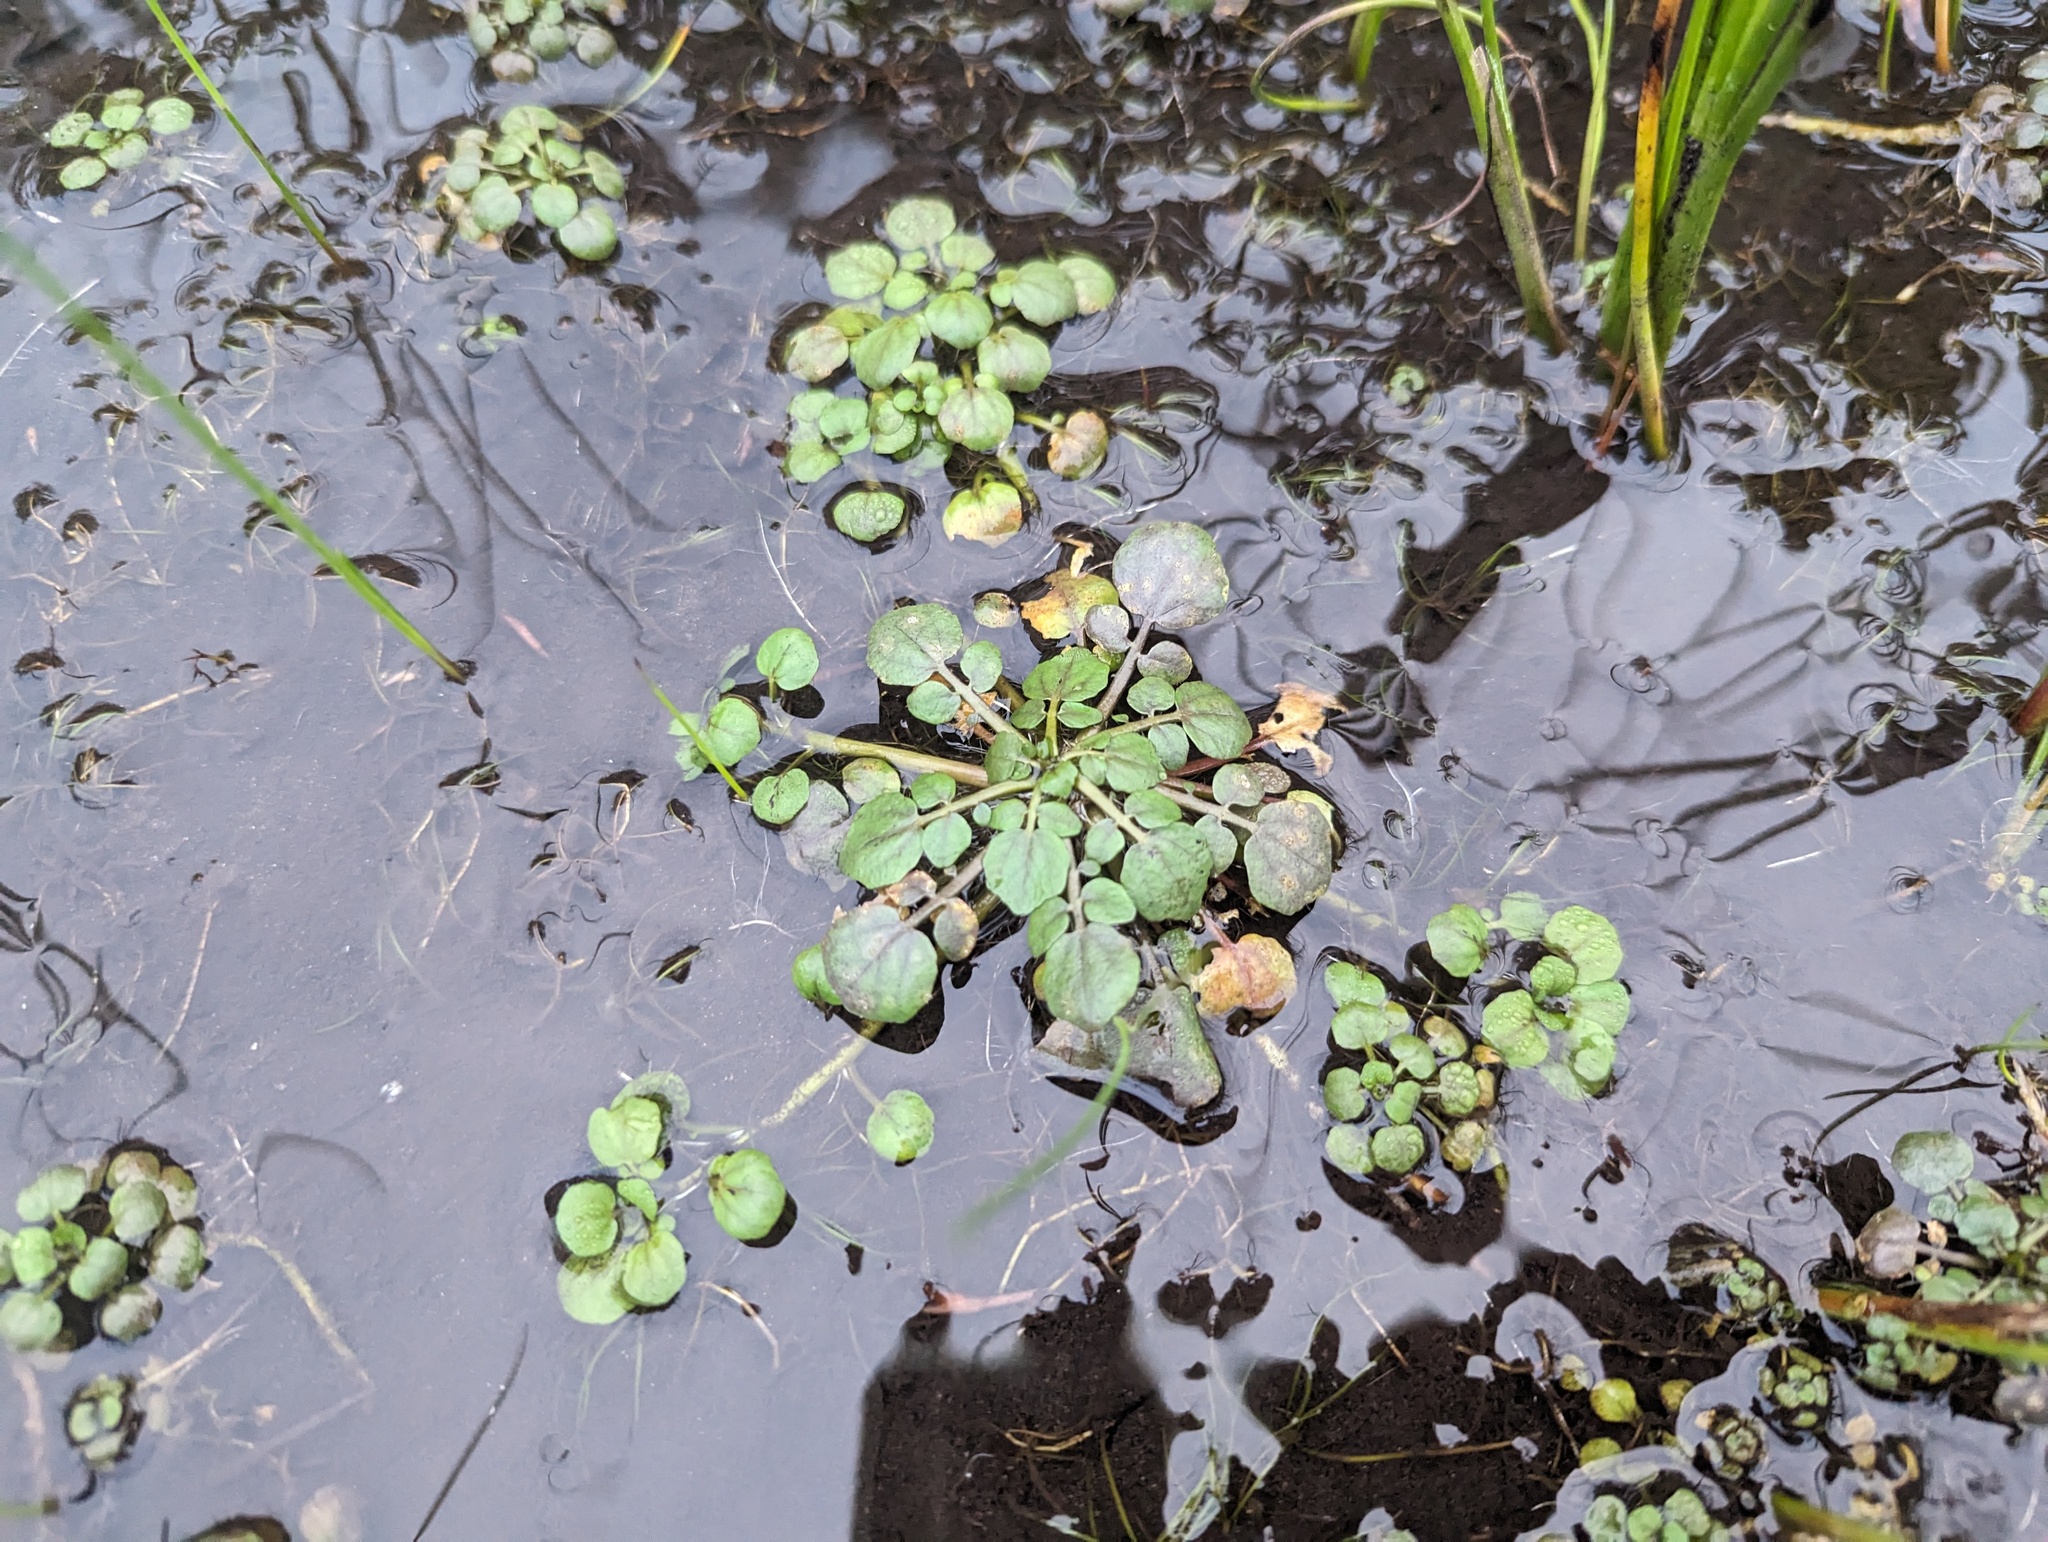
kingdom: Plantae
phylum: Tracheophyta
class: Magnoliopsida
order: Brassicales
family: Brassicaceae
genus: Nasturtium
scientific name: Nasturtium officinale
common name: Watercress
